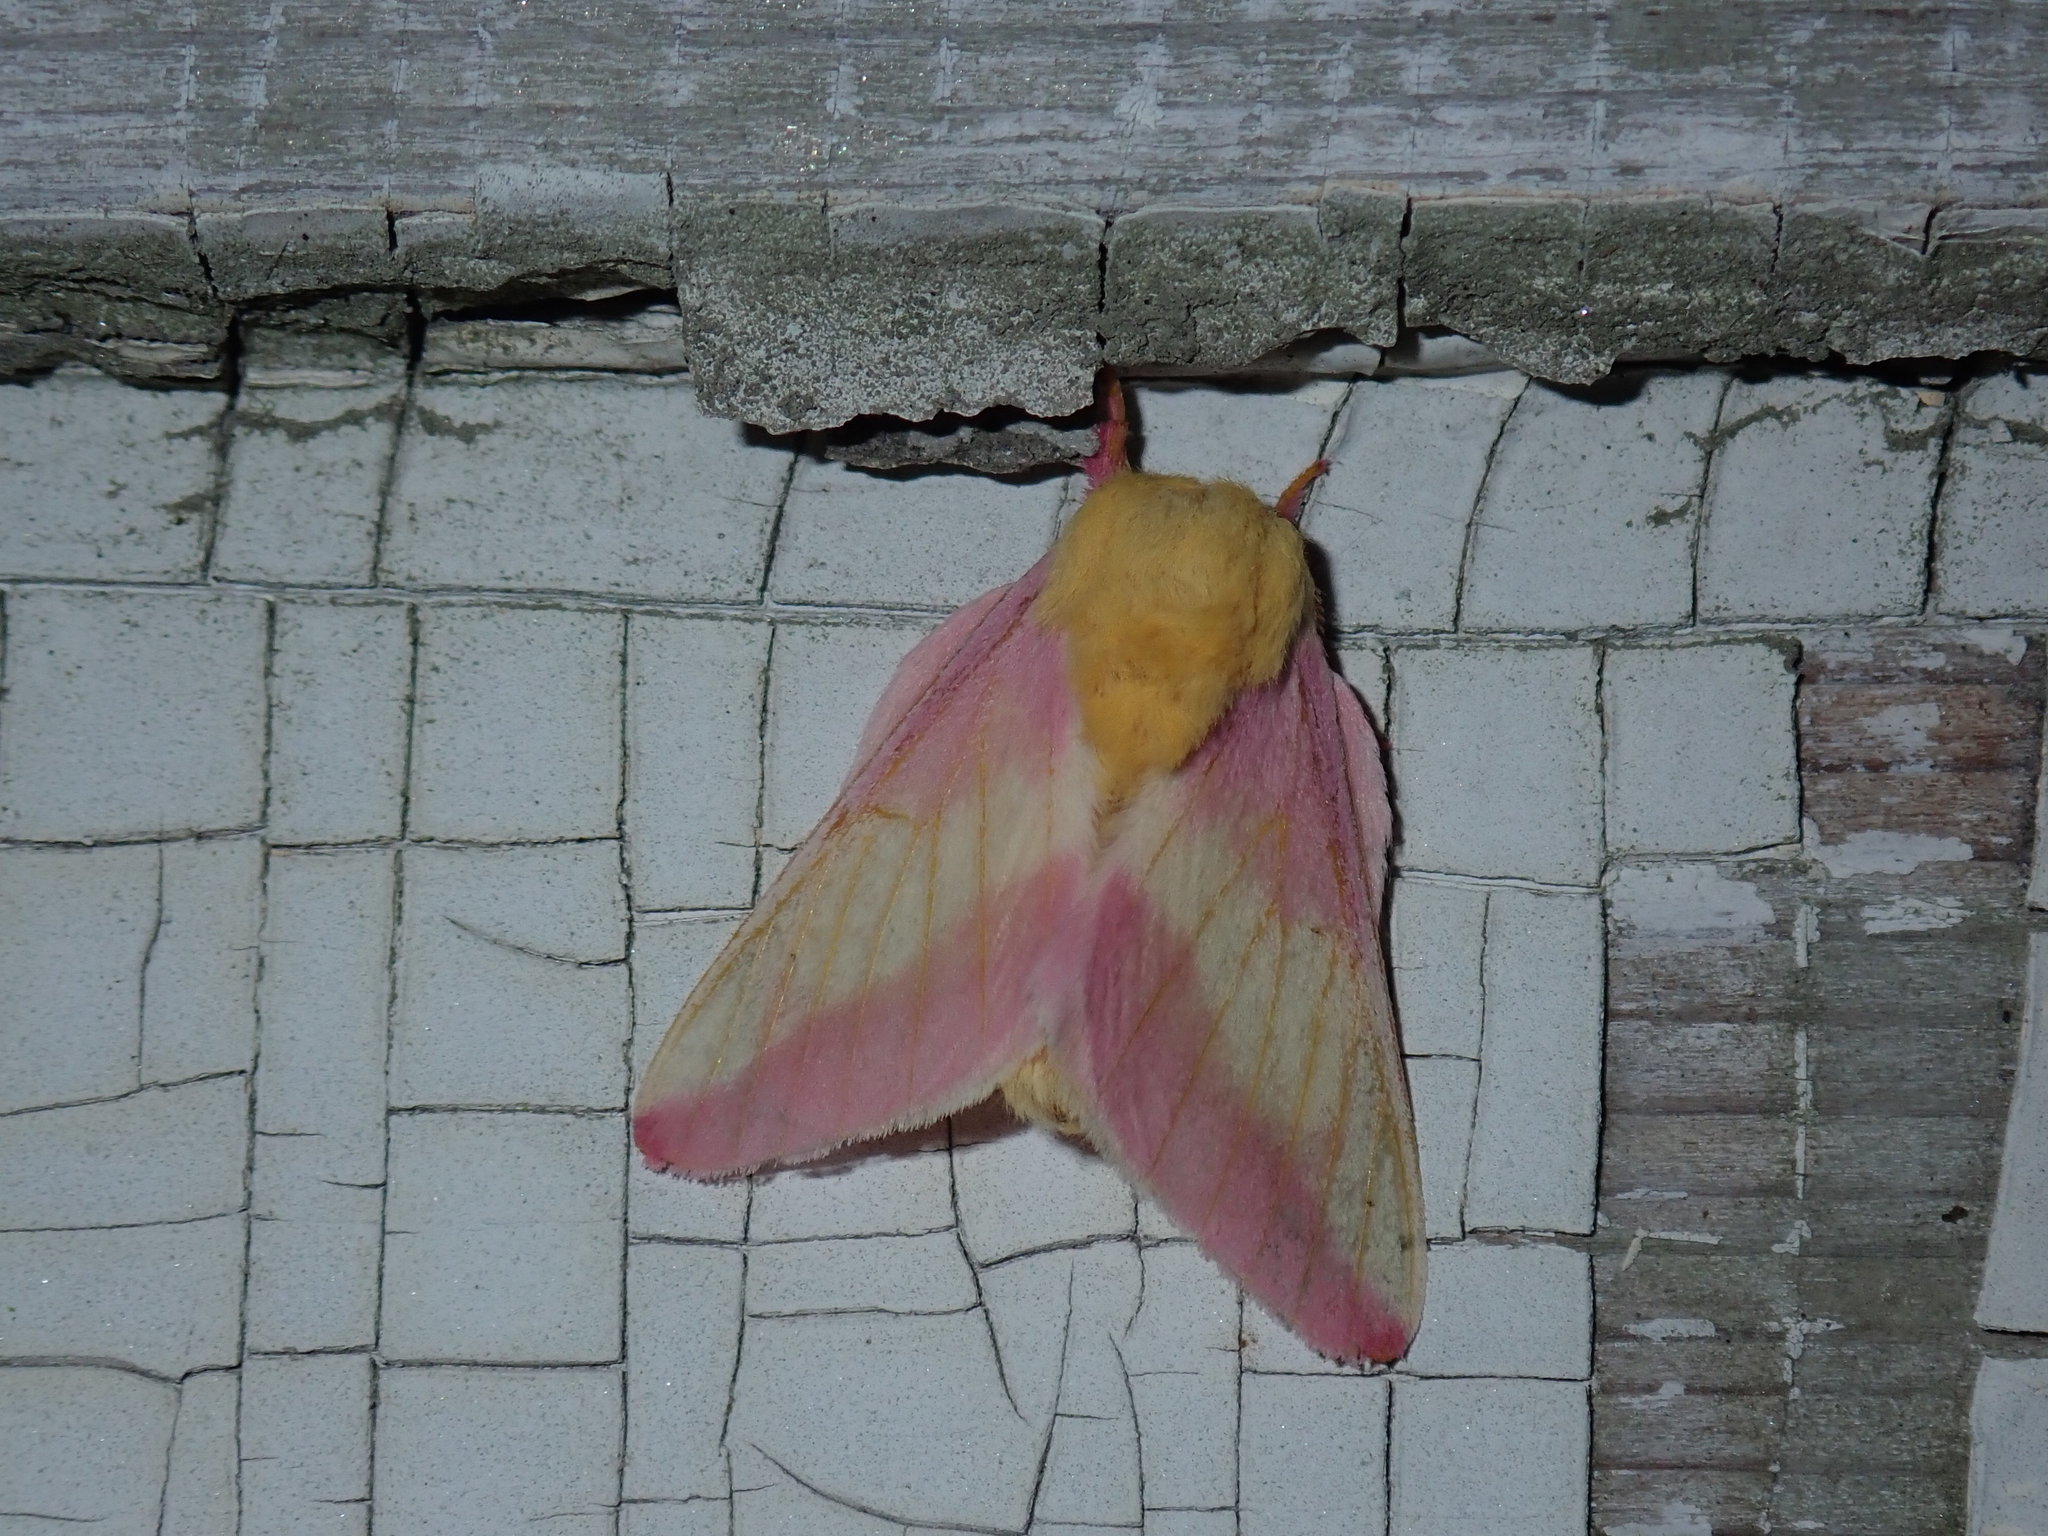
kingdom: Animalia
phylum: Arthropoda
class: Insecta
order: Lepidoptera
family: Saturniidae
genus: Dryocampa
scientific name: Dryocampa rubicunda
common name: Rosy maple moth
